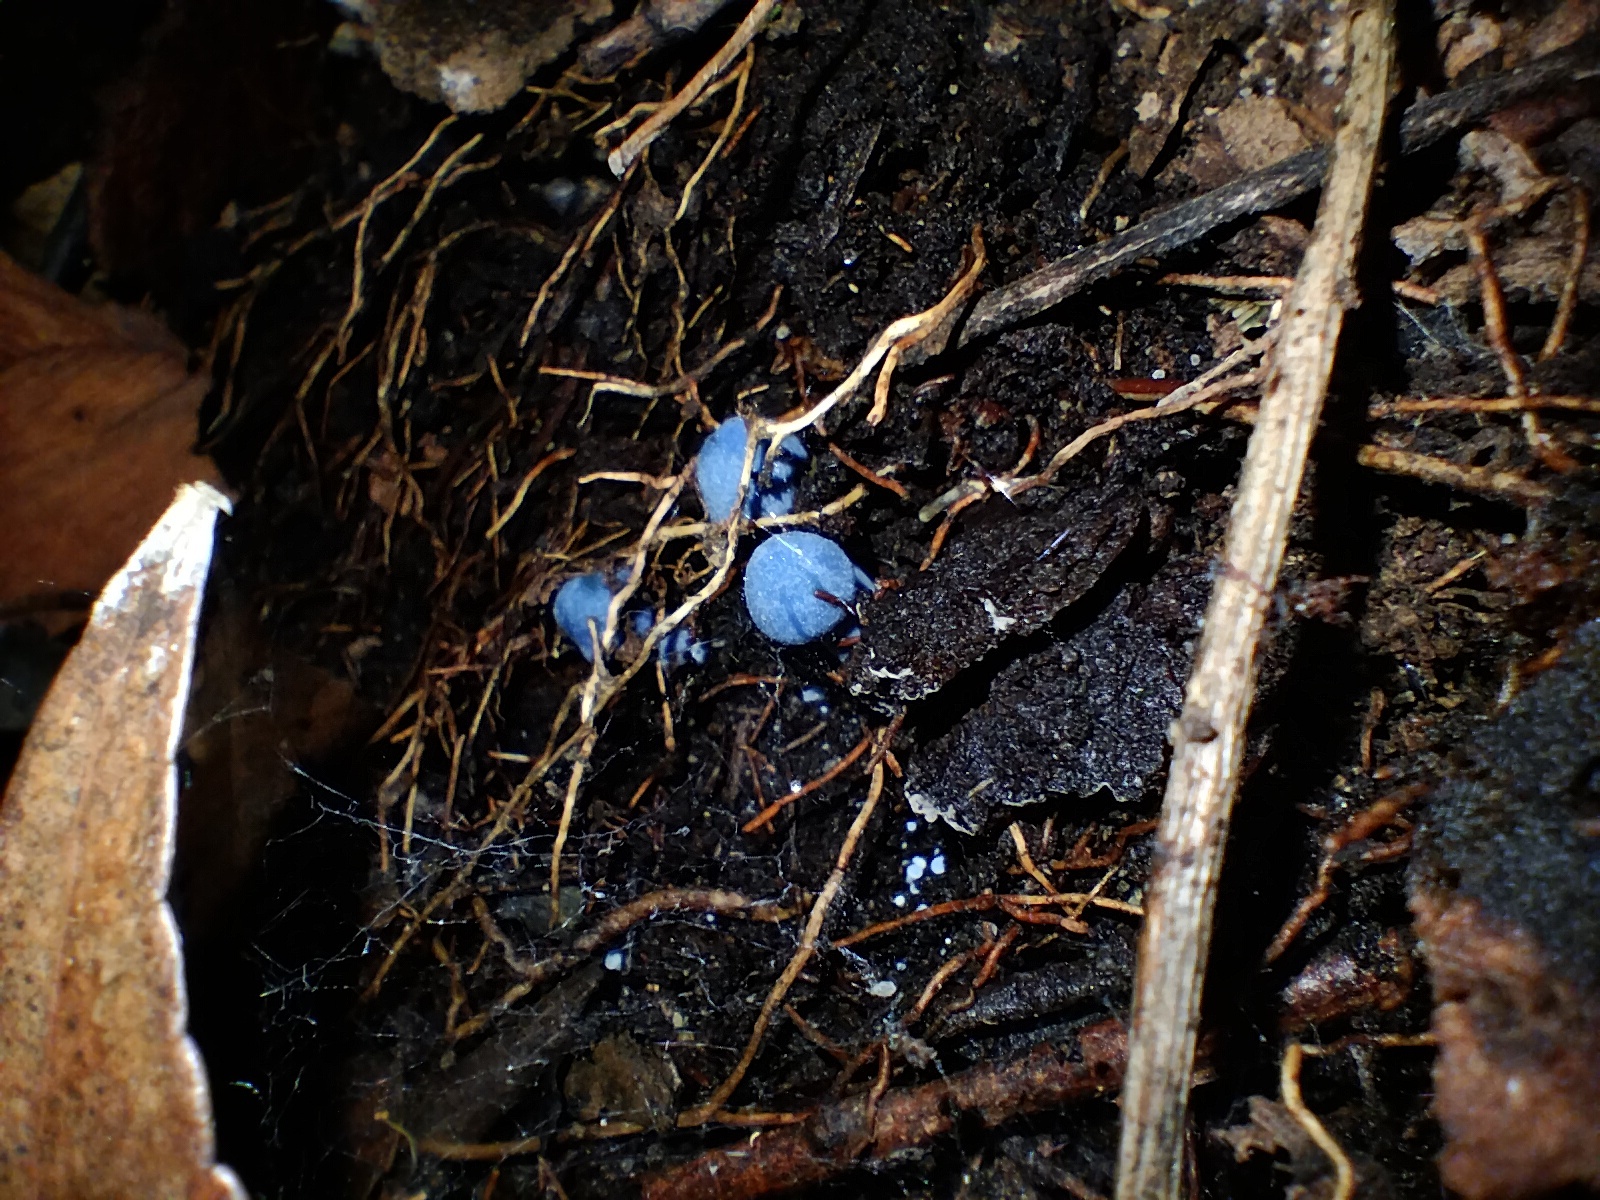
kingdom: Fungi
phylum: Basidiomycota
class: Agaricomycetes
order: Agaricales
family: Entolomataceae
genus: Entoloma
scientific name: Entoloma virescens
